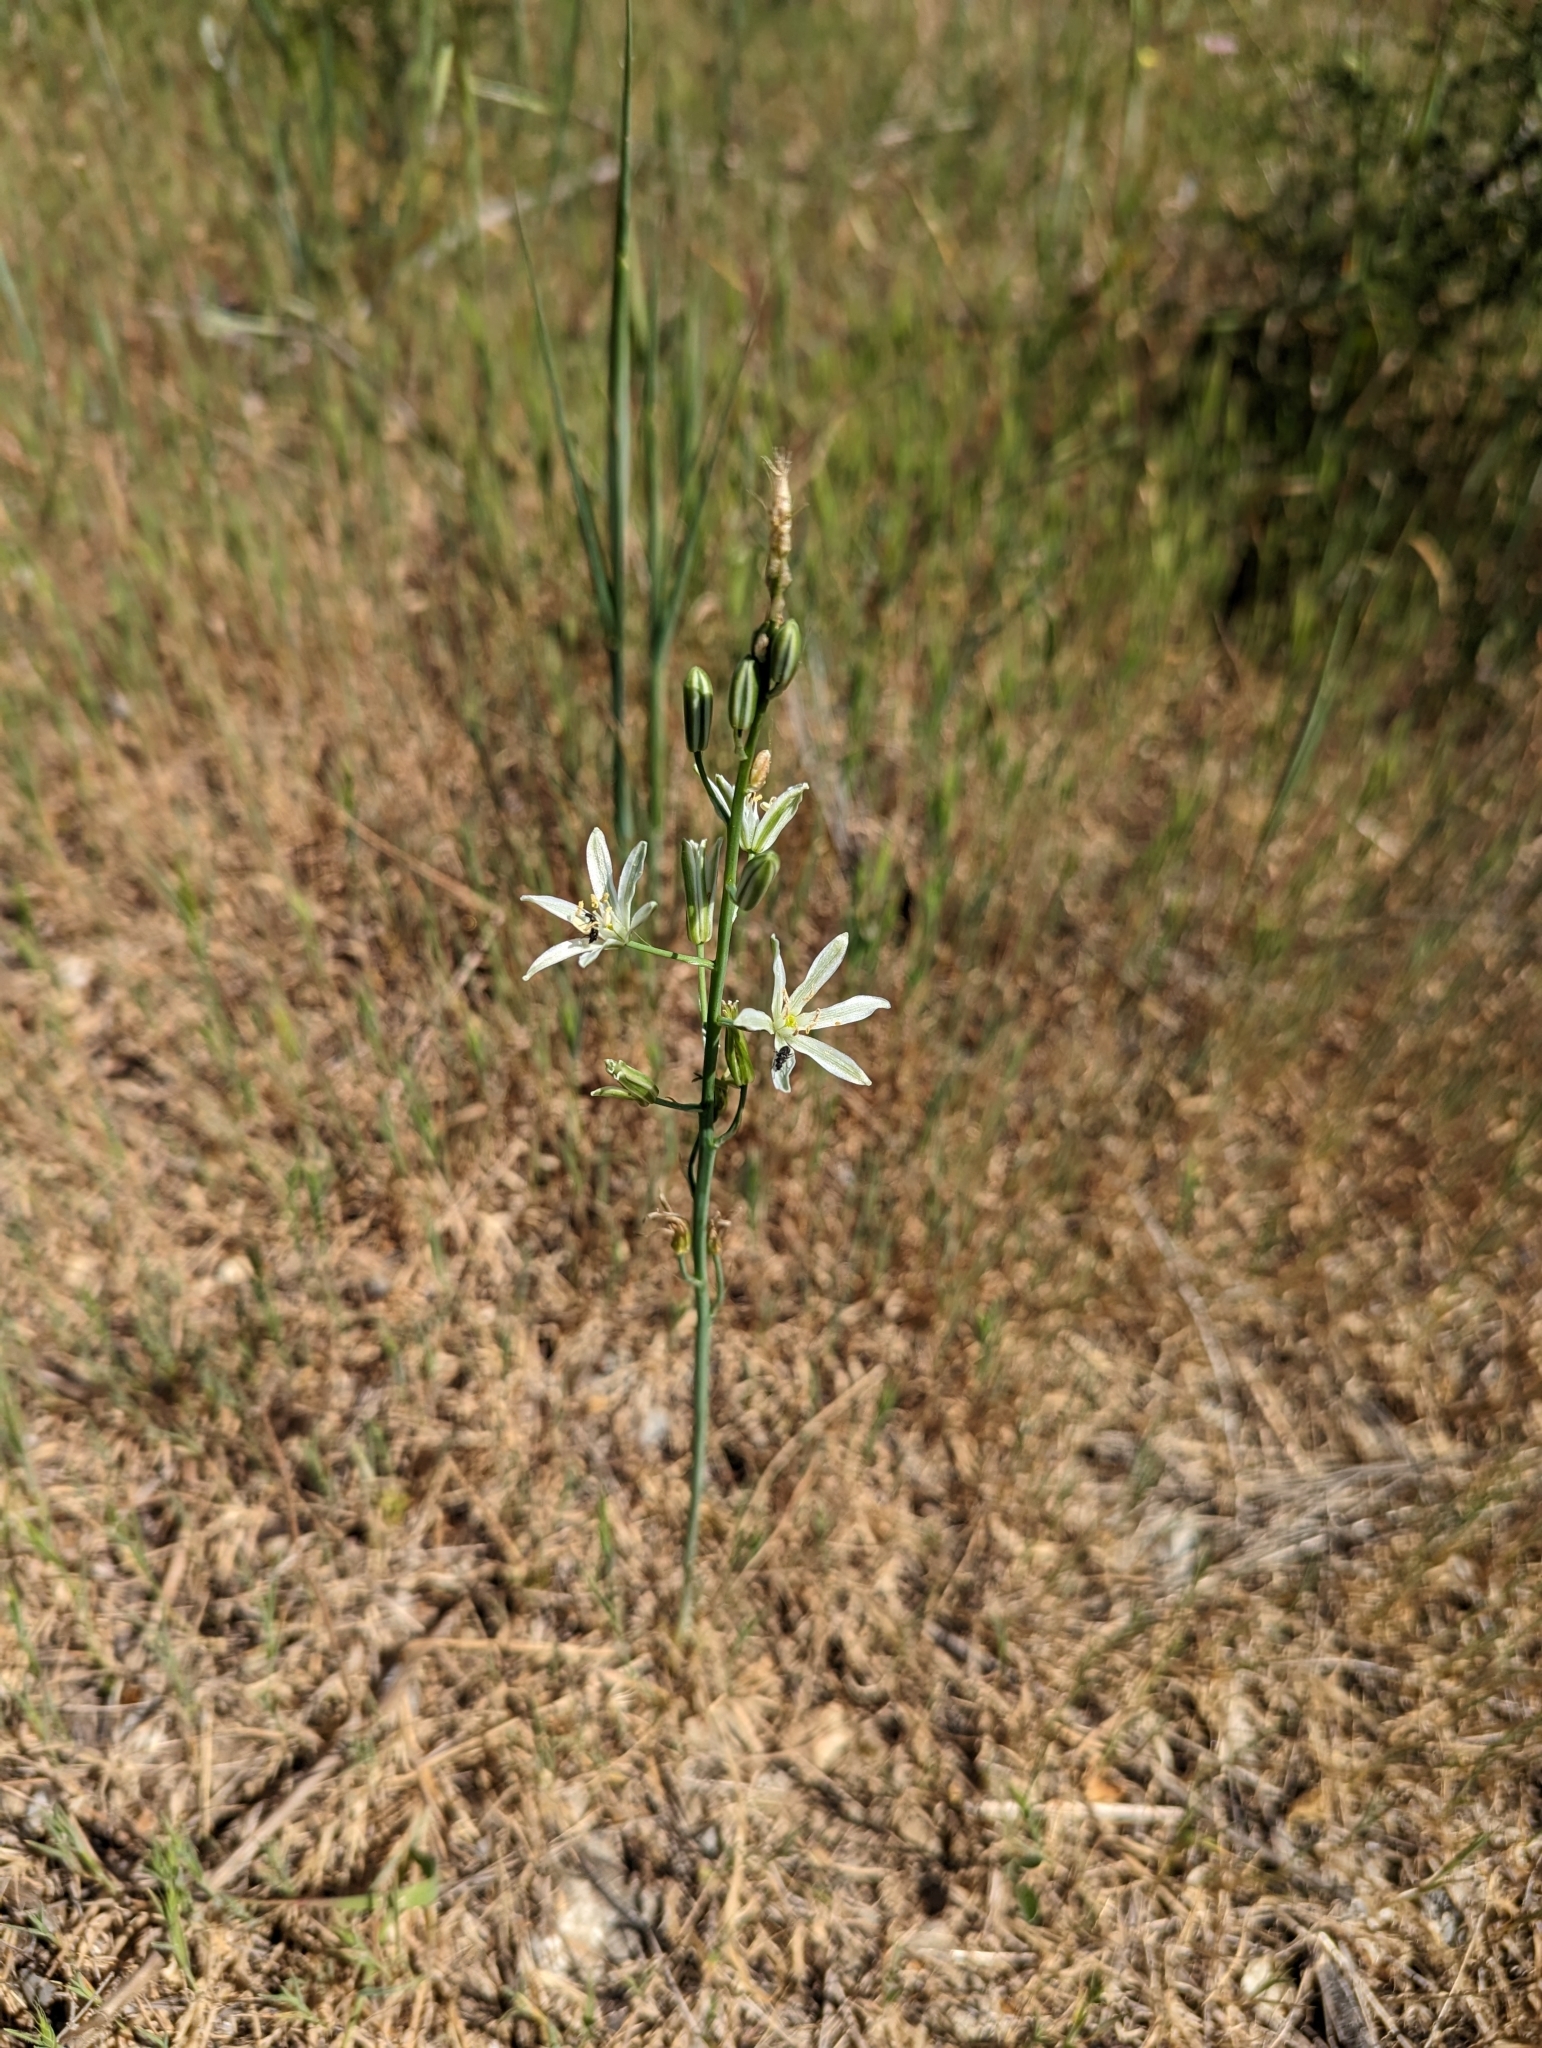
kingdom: Plantae
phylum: Tracheophyta
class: Liliopsida
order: Asparagales
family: Asparagaceae
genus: Ornithogalum
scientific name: Ornithogalum narbonense
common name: Bath-asparagus
